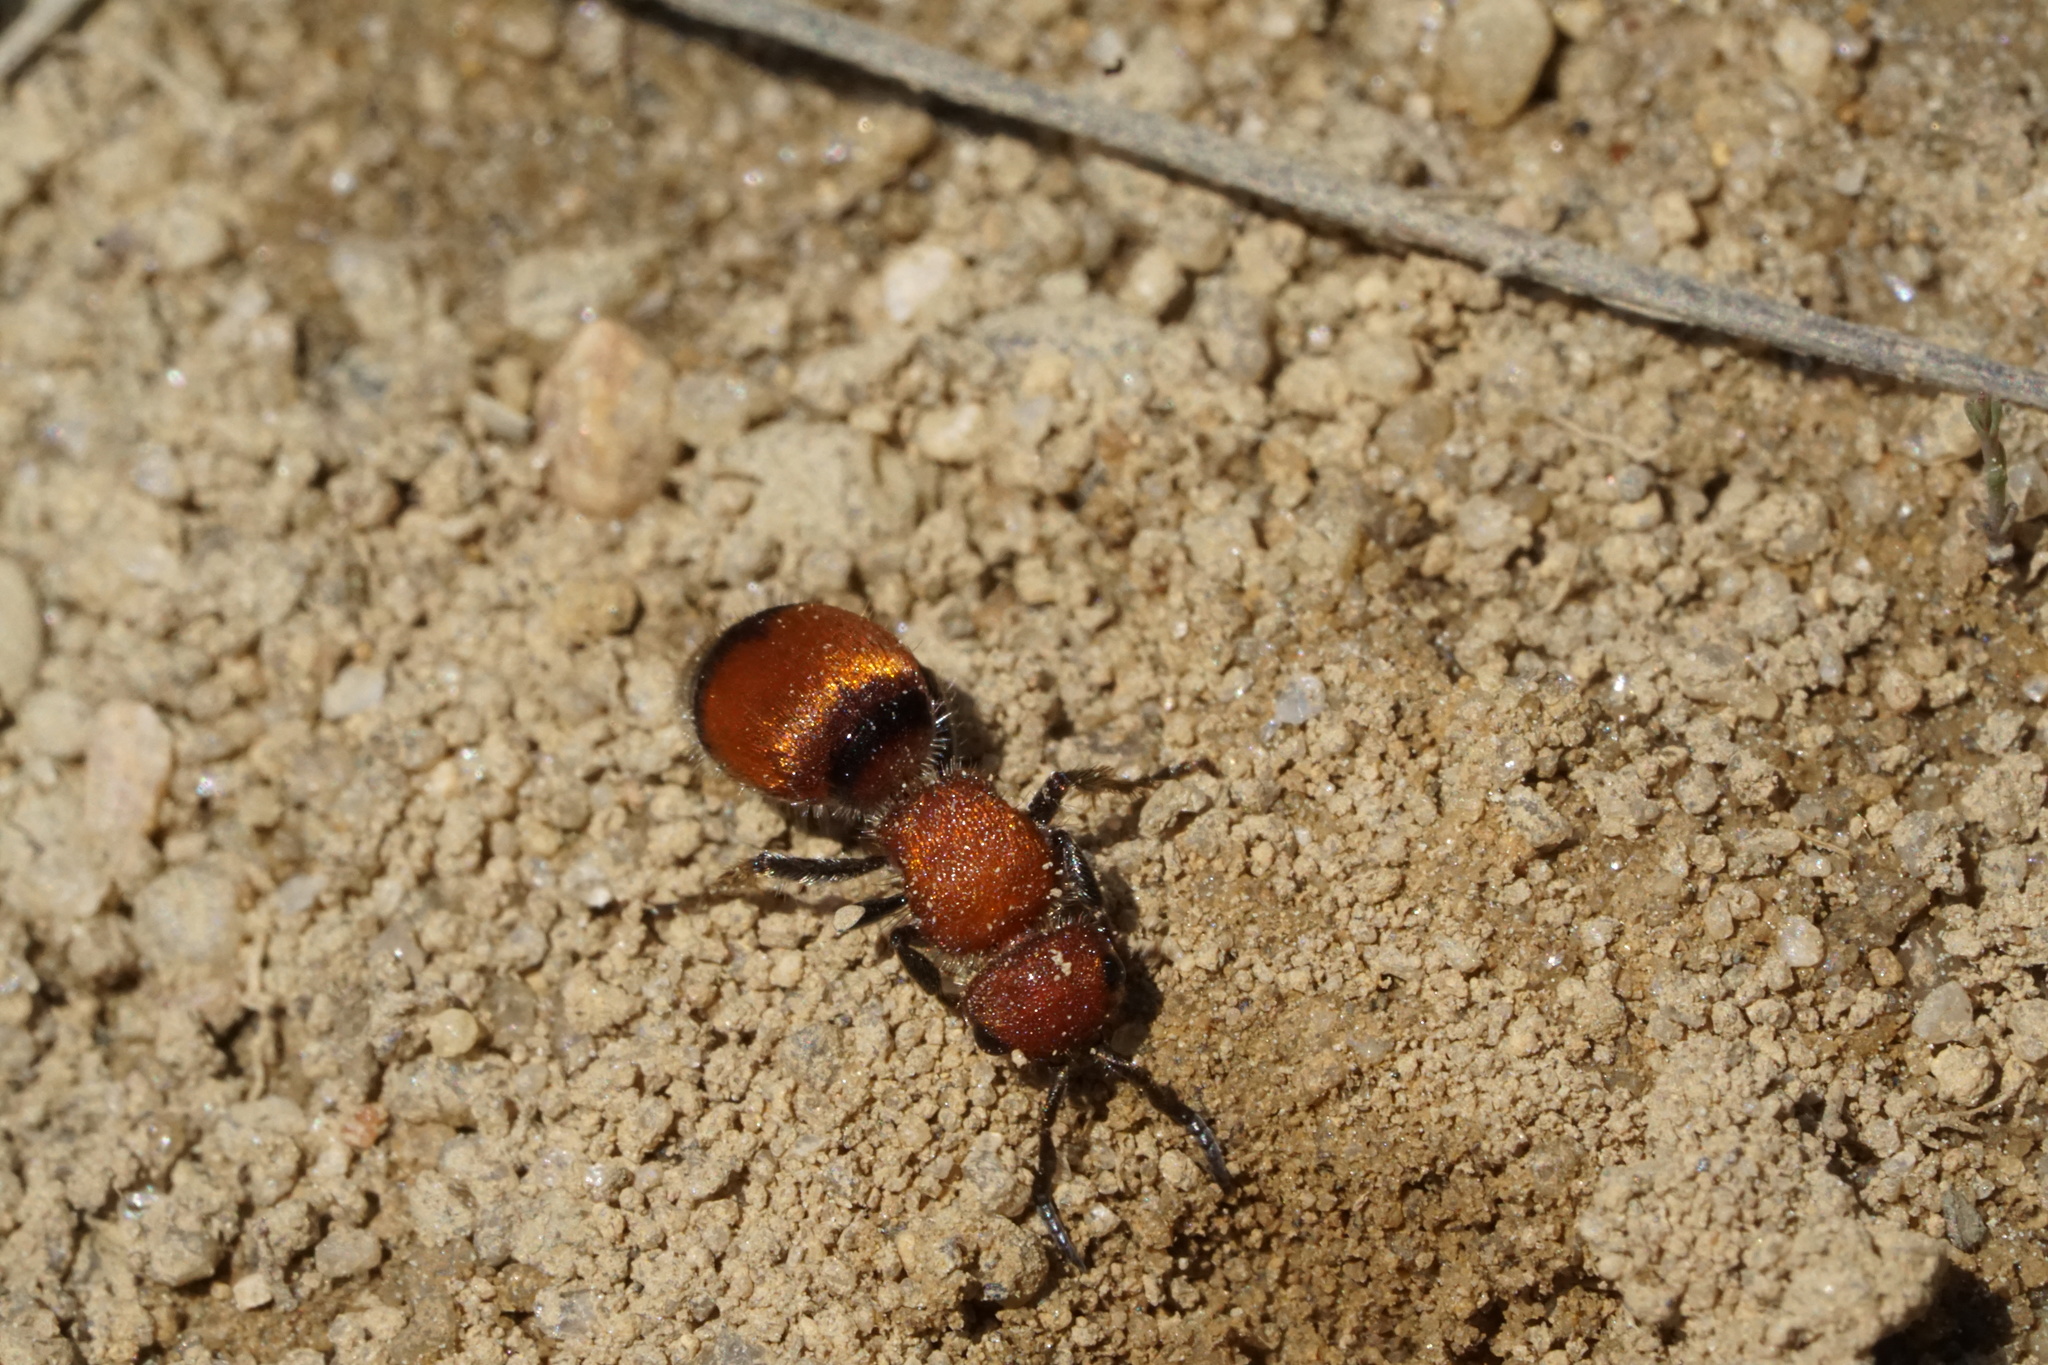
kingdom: Animalia
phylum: Arthropoda
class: Insecta
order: Hymenoptera
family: Mutillidae
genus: Pseudomethoca
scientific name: Pseudomethoca
